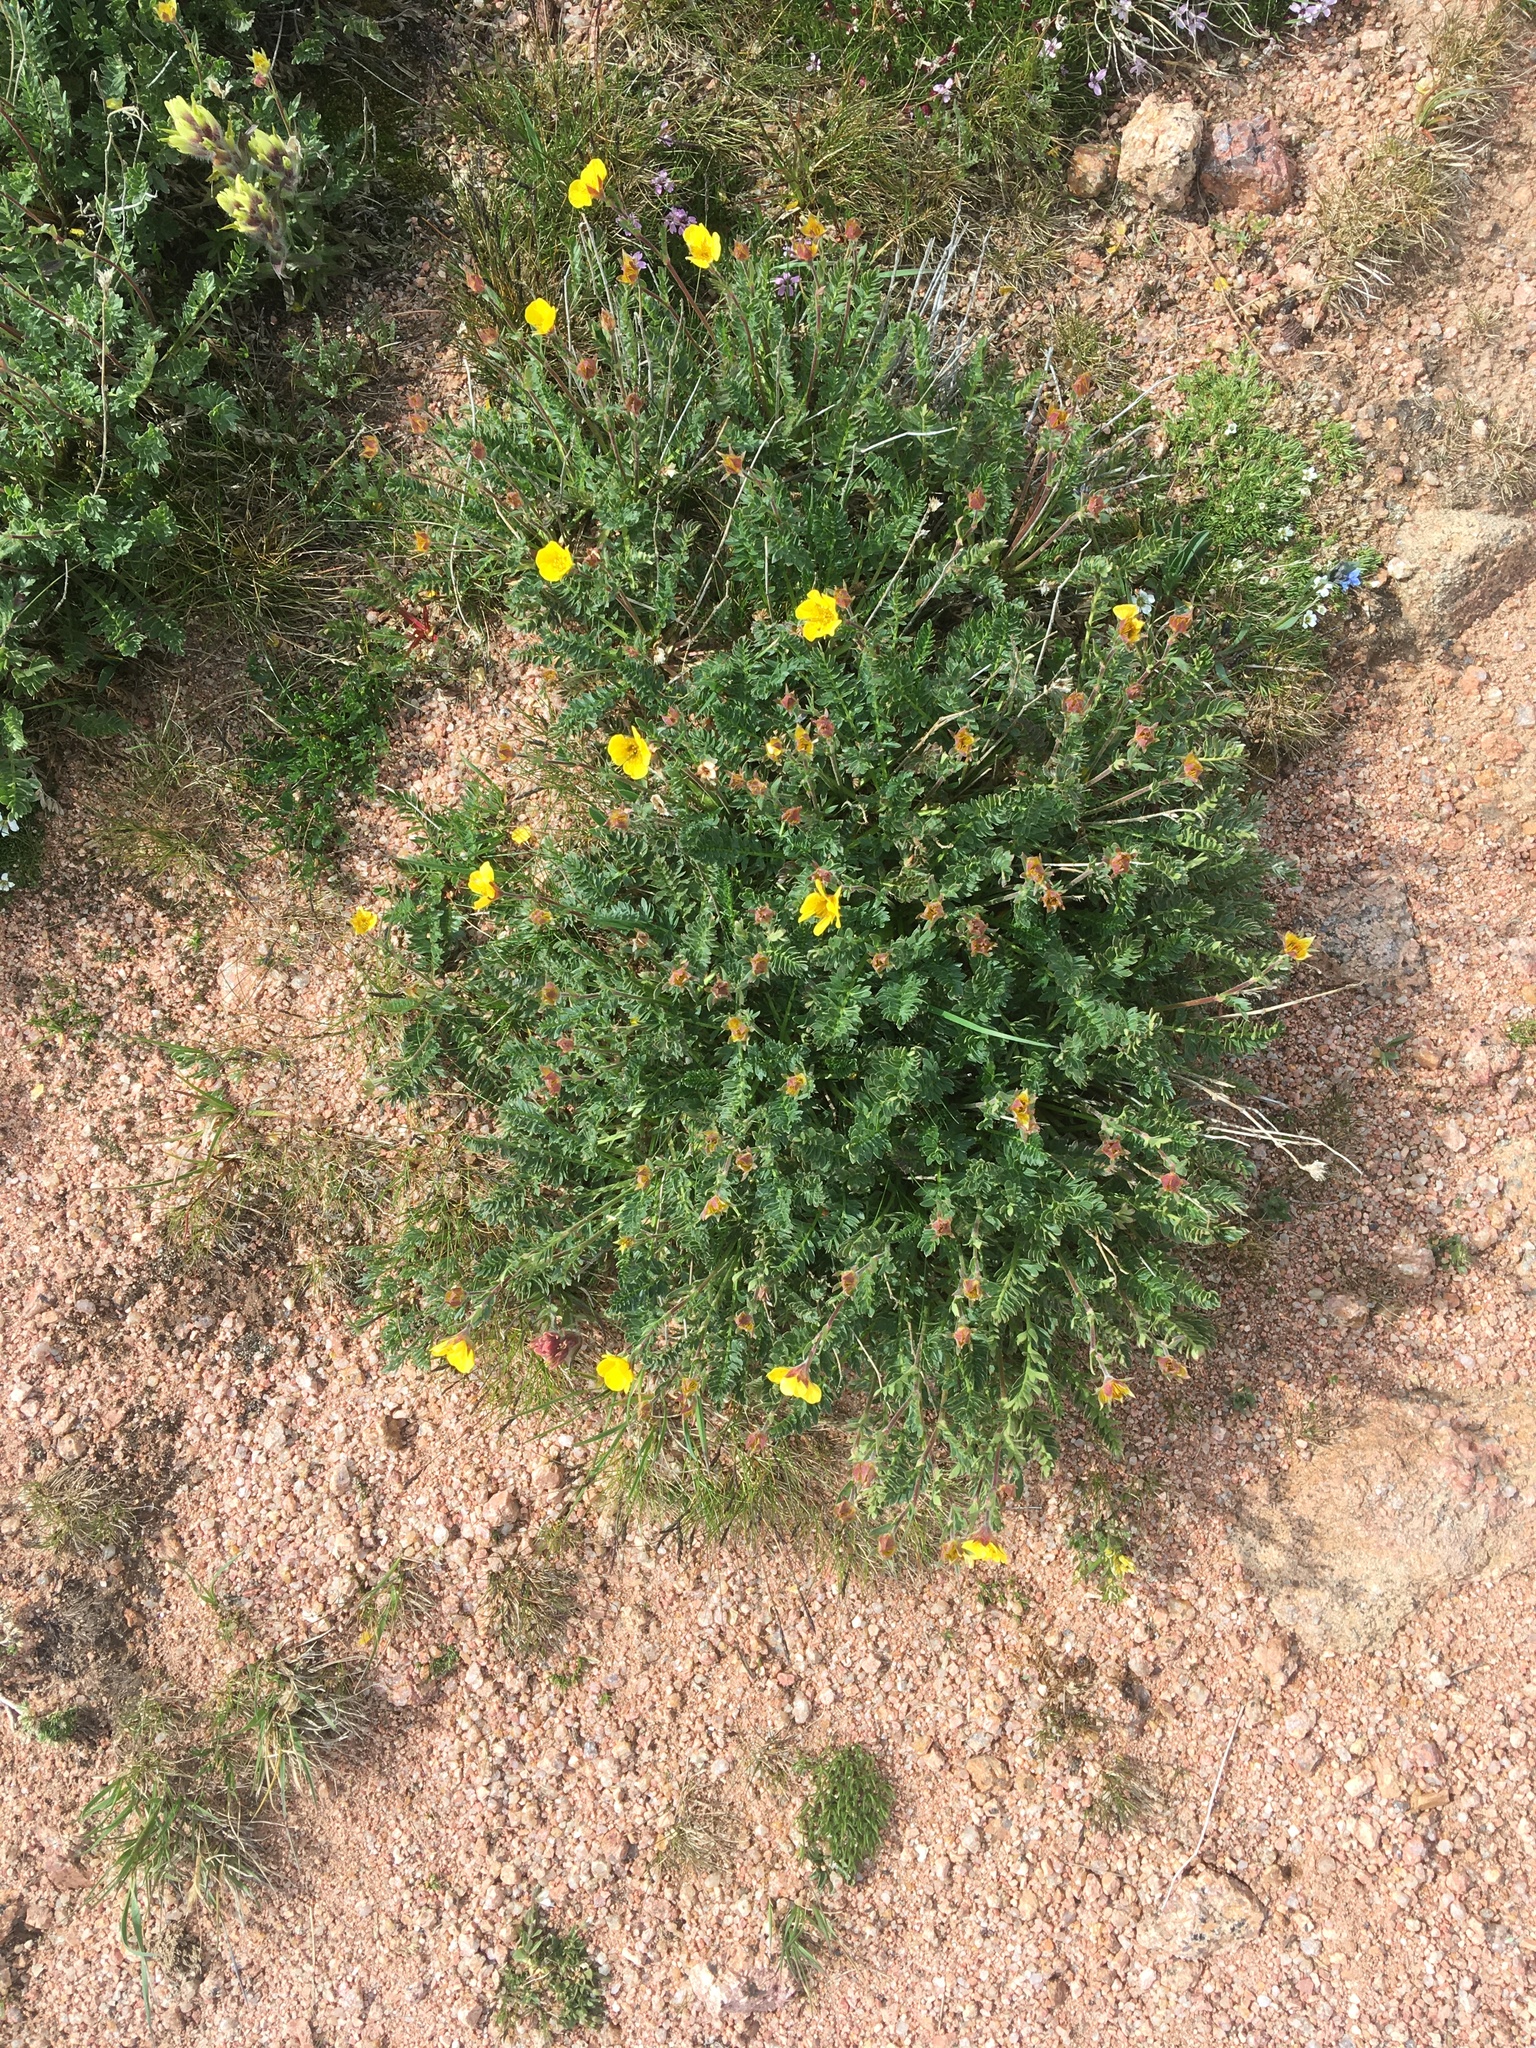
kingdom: Plantae
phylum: Tracheophyta
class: Magnoliopsida
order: Rosales
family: Rosaceae
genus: Geum
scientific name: Geum rossii
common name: Alpine avens
